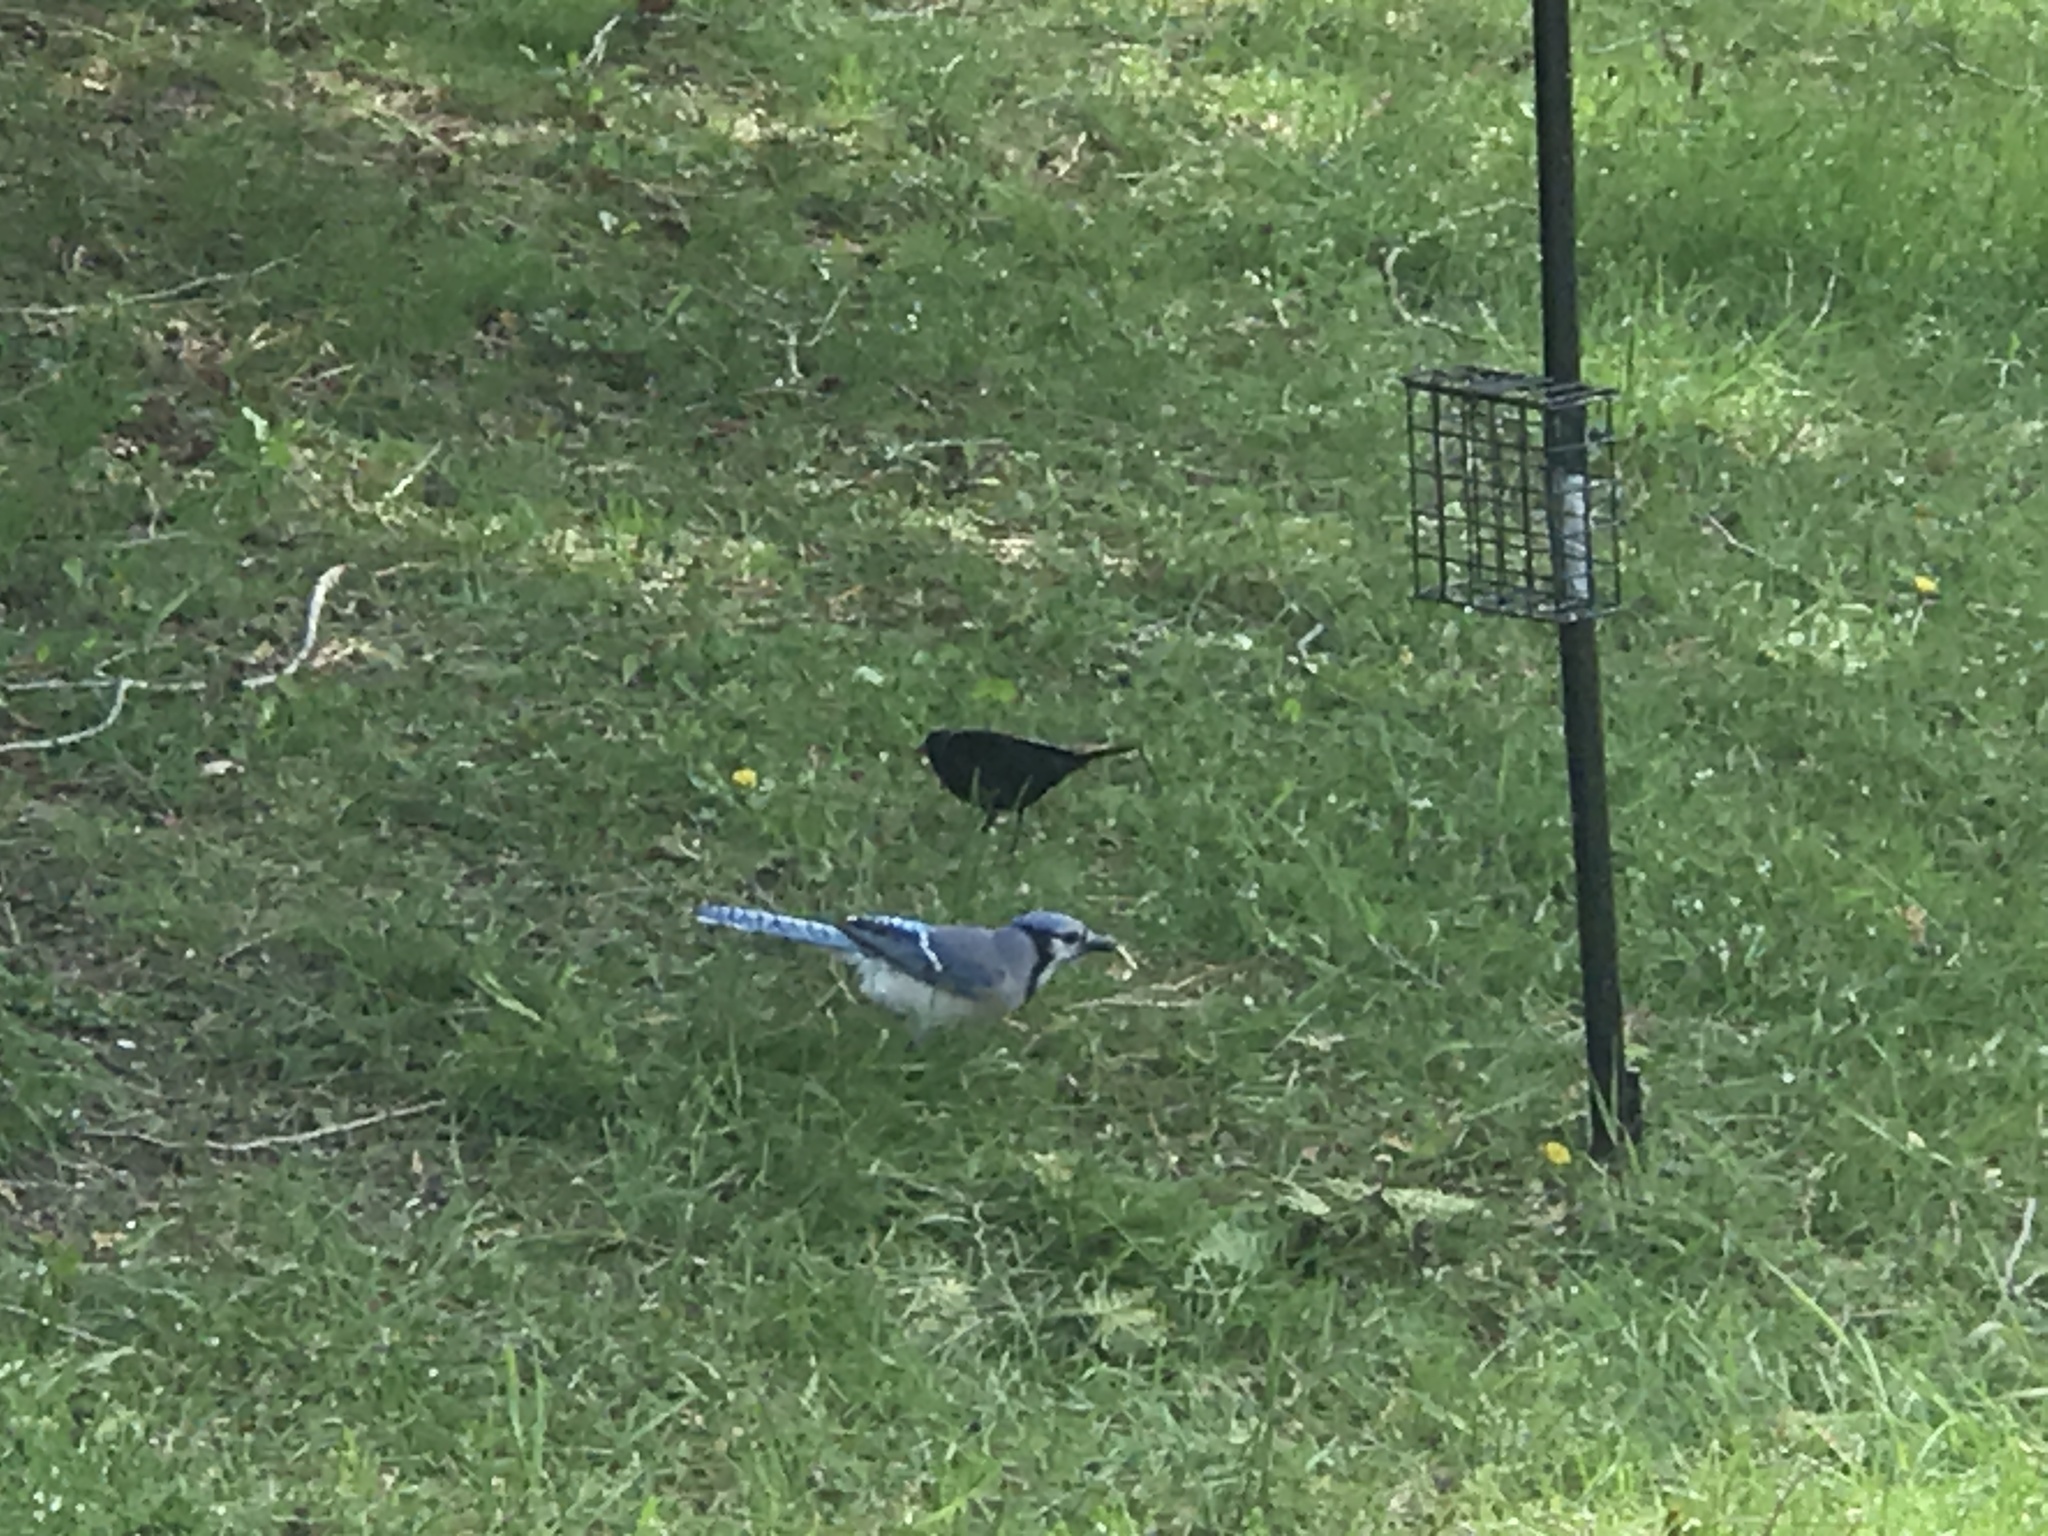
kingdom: Animalia
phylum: Chordata
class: Aves
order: Passeriformes
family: Icteridae
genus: Molothrus
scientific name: Molothrus ater
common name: Brown-headed cowbird
